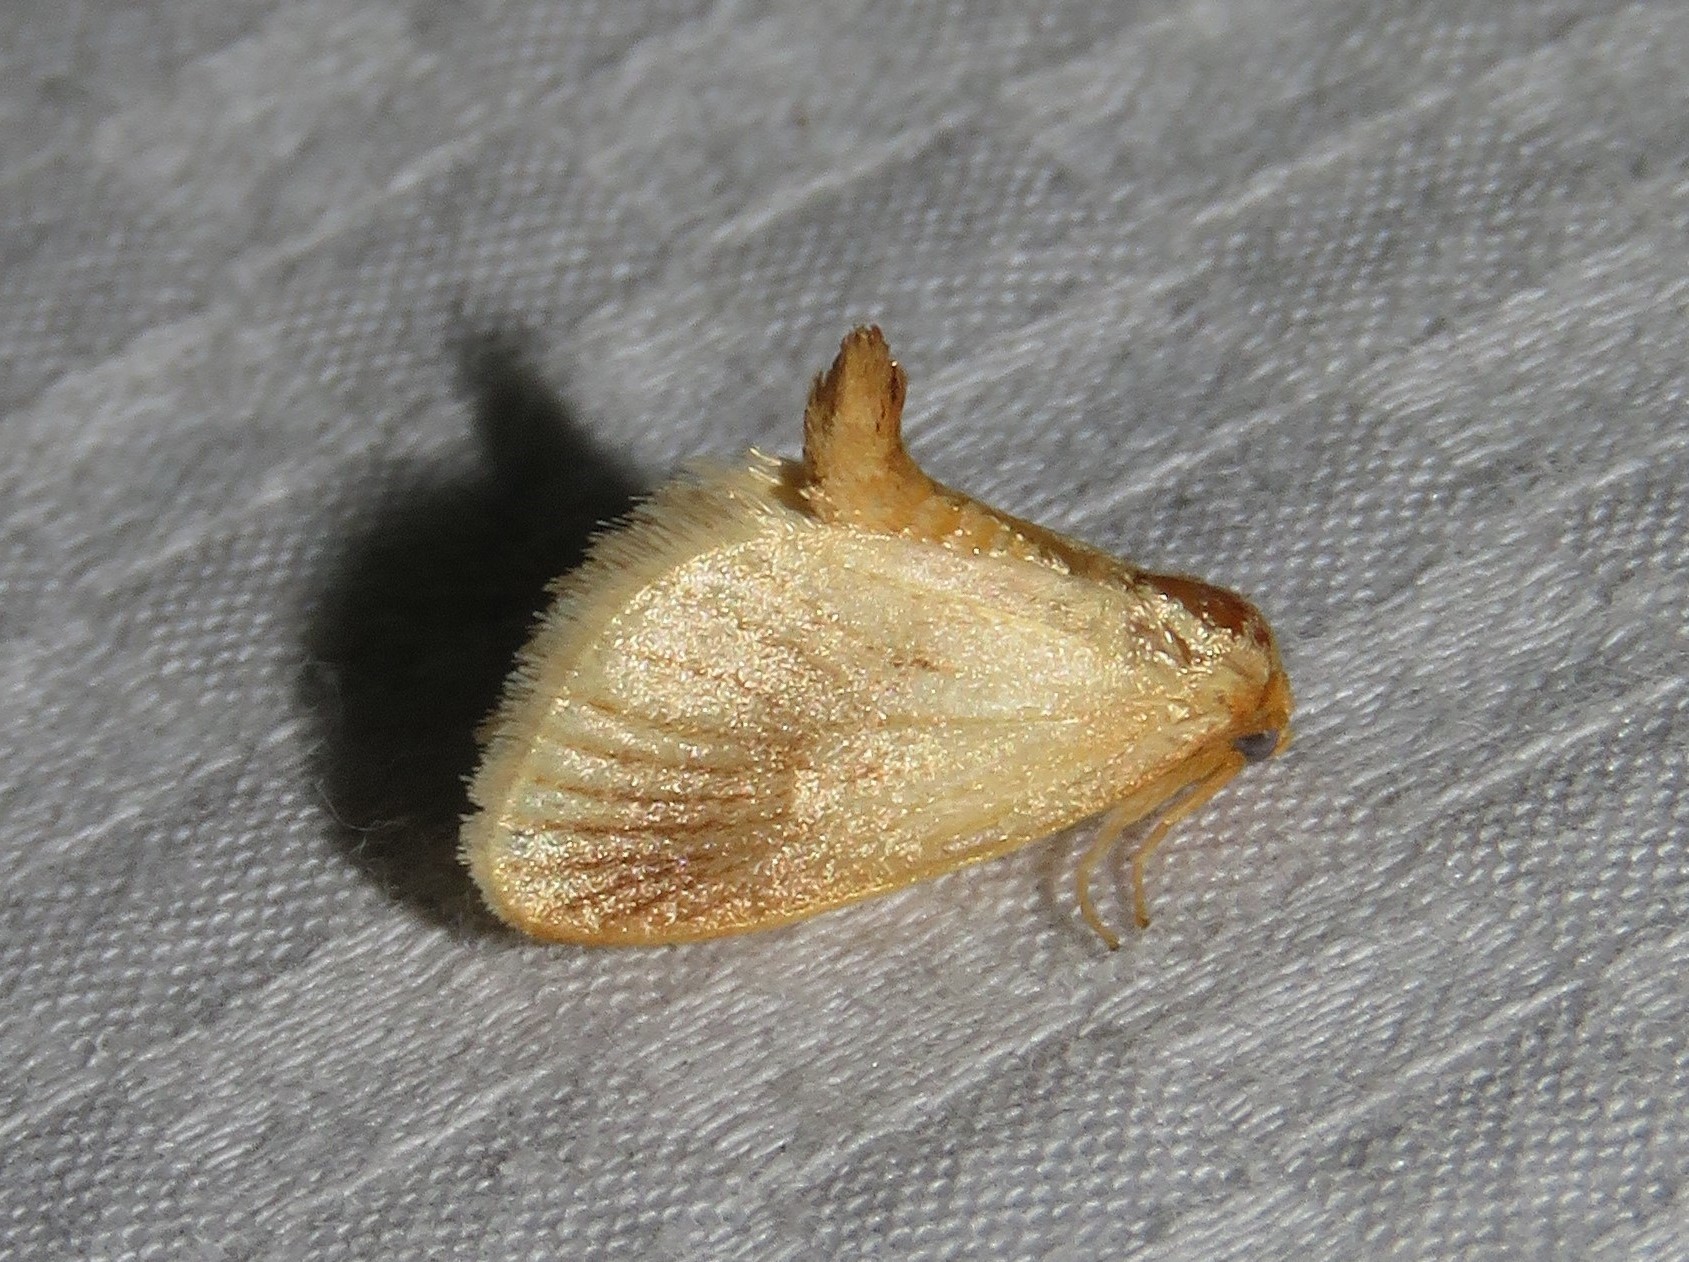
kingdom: Animalia
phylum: Arthropoda
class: Insecta
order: Lepidoptera
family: Limacodidae
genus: Tortricidia
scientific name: Tortricidia testacea
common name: Early button slug moth
